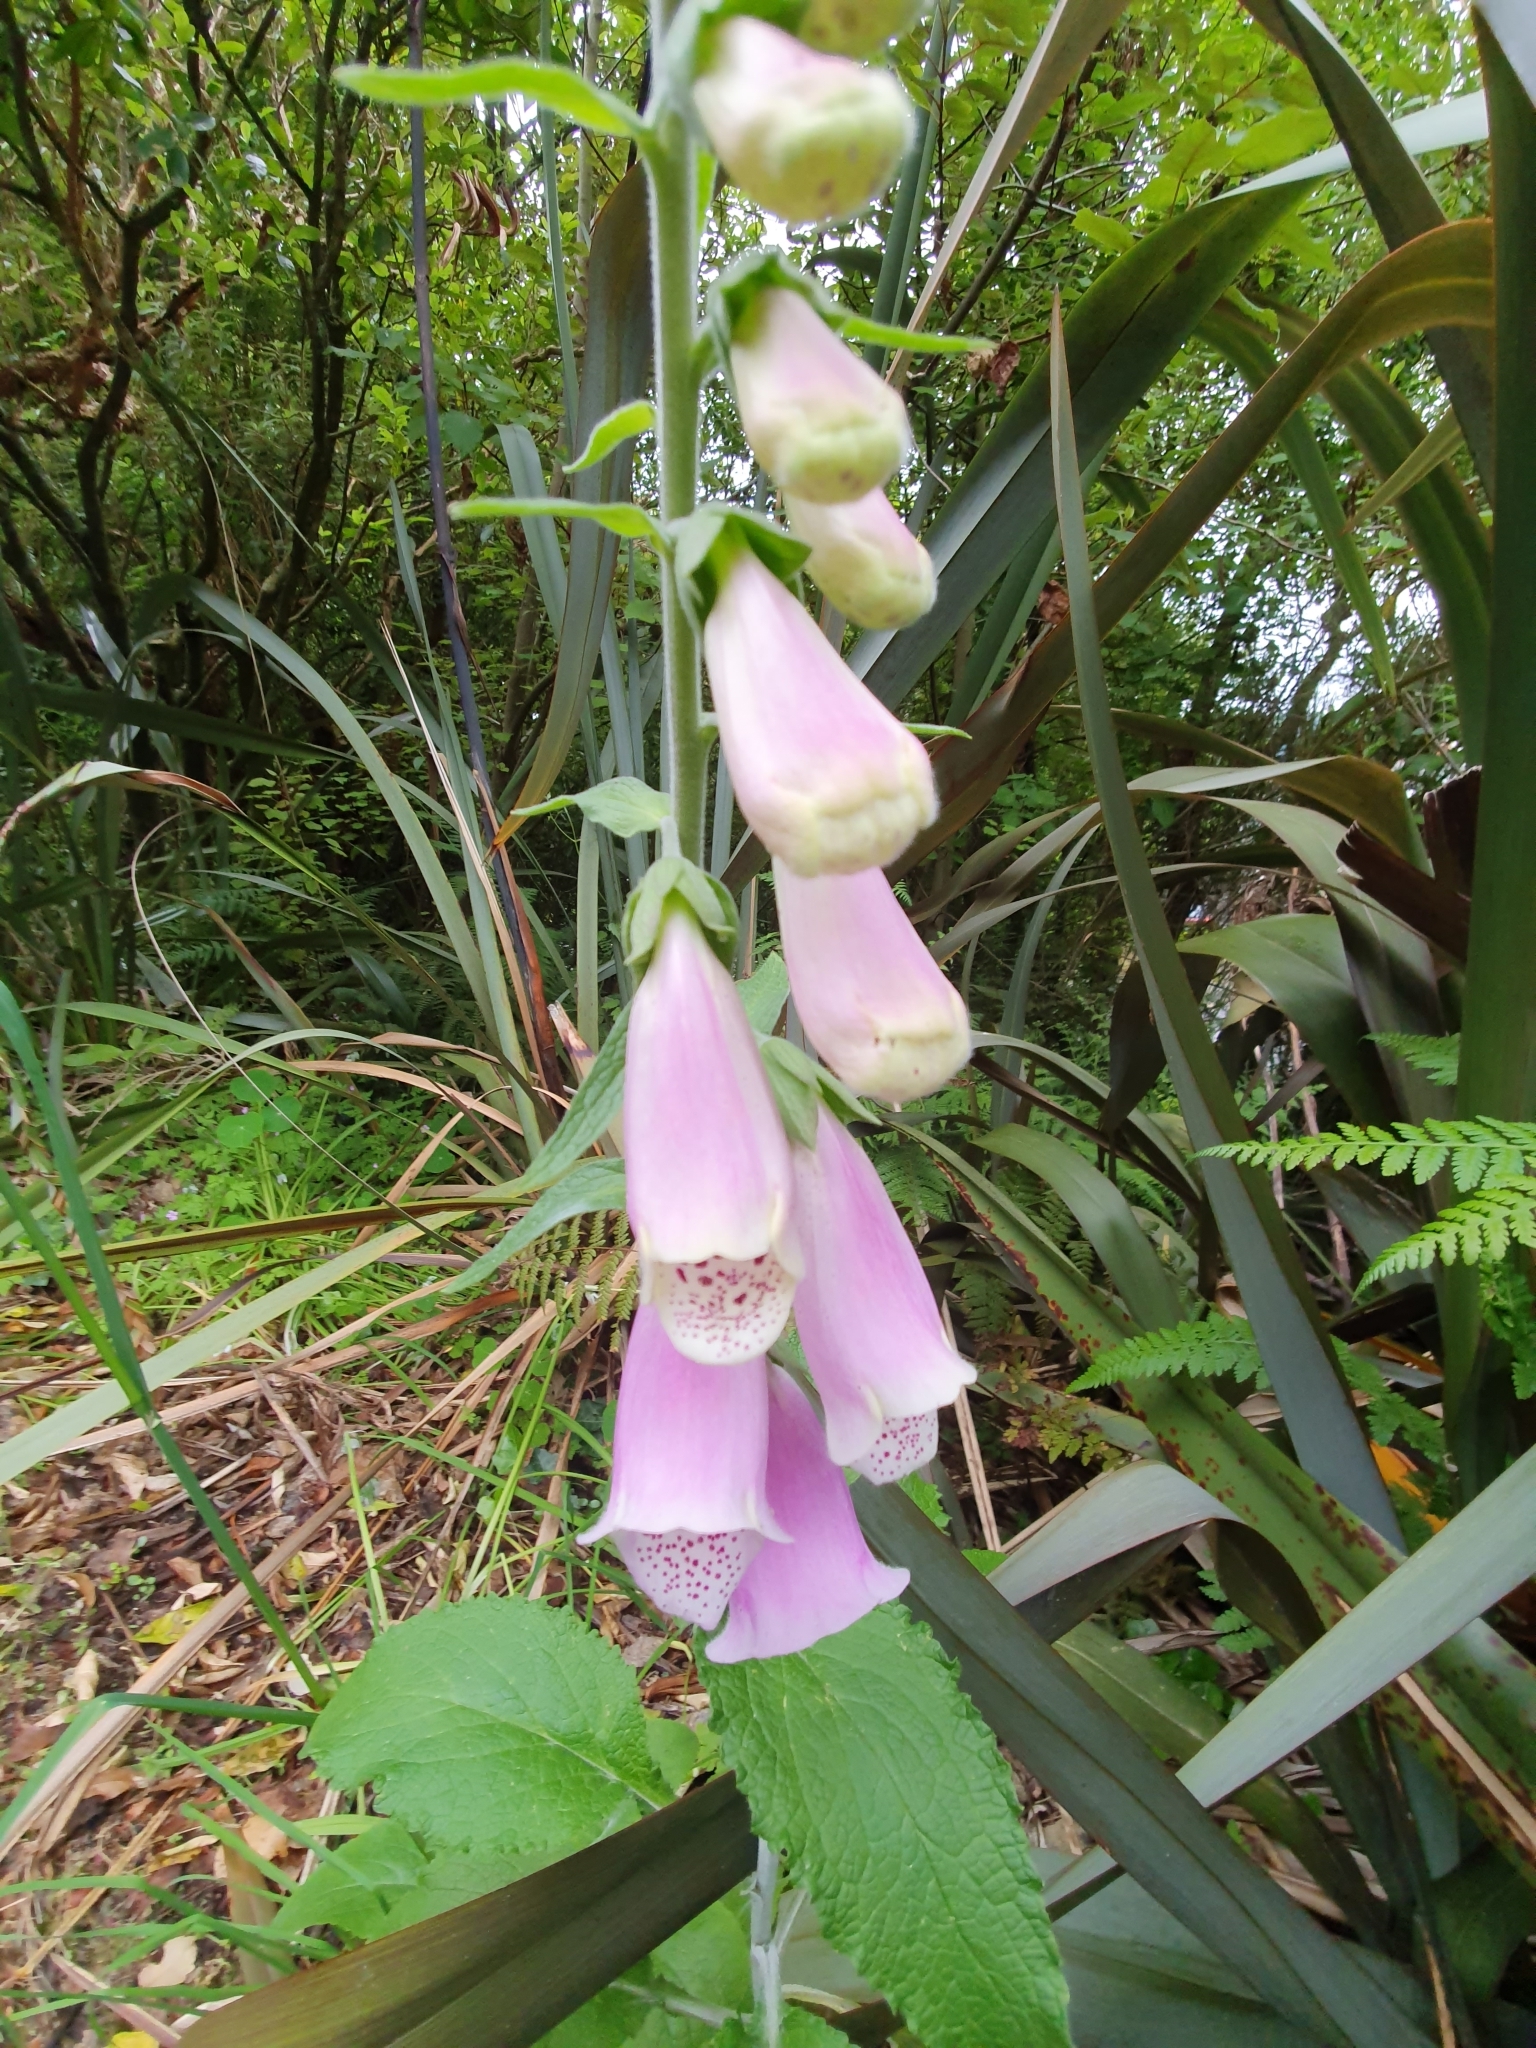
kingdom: Plantae
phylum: Tracheophyta
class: Magnoliopsida
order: Lamiales
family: Plantaginaceae
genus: Digitalis
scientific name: Digitalis purpurea
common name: Foxglove
